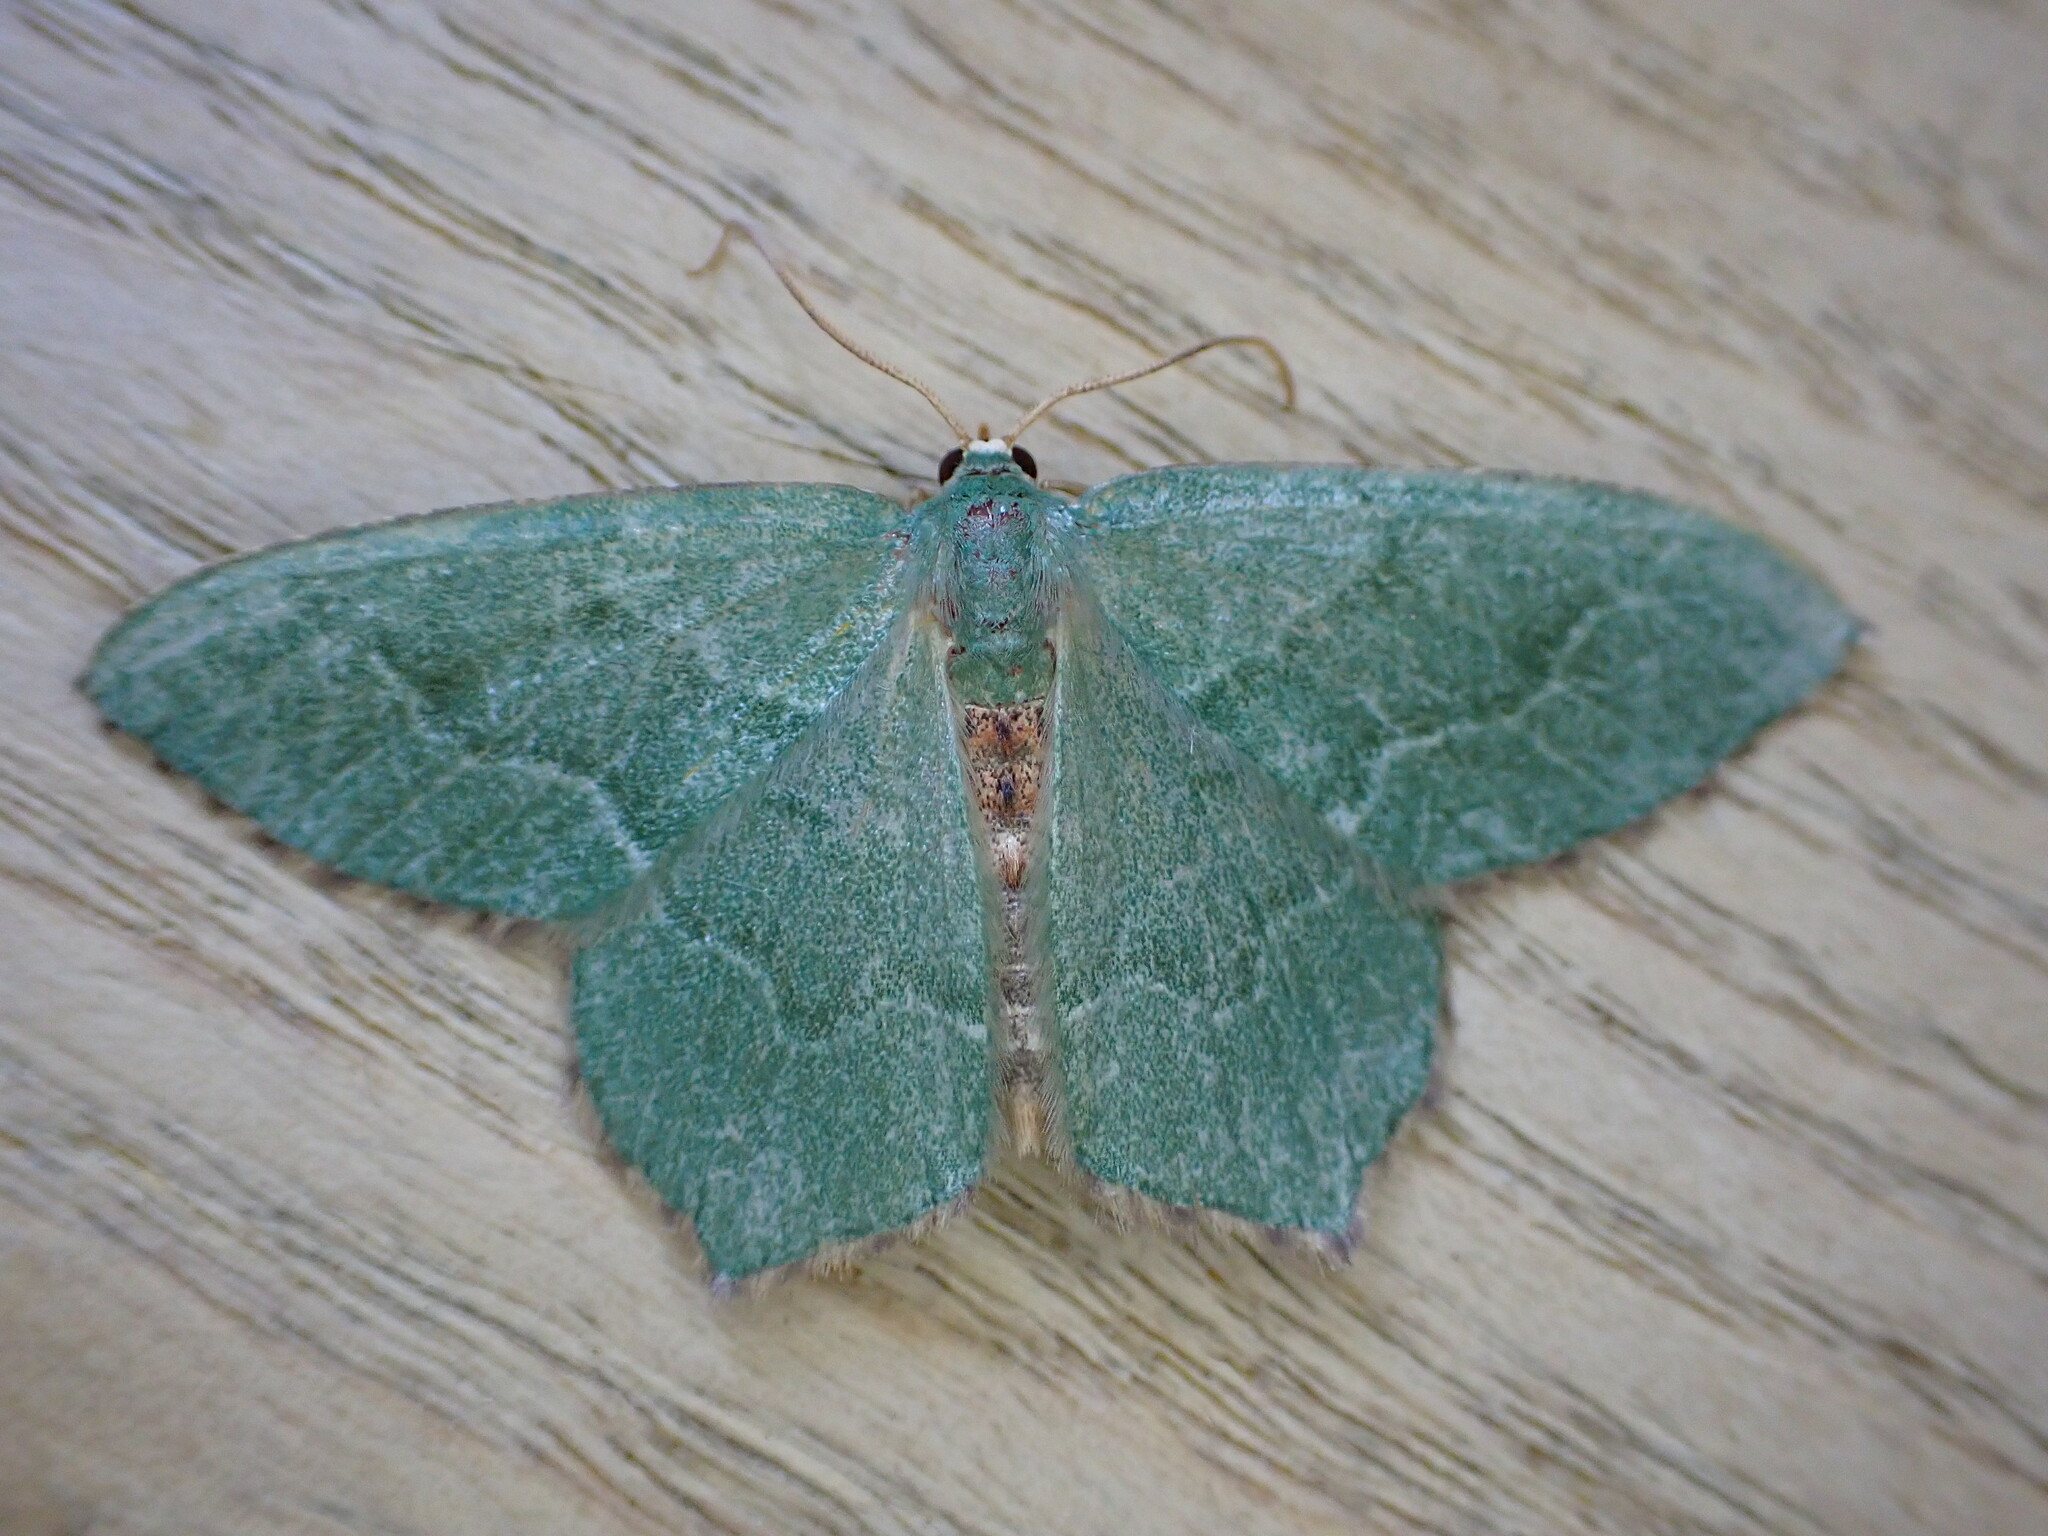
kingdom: Animalia
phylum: Arthropoda
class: Insecta
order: Lepidoptera
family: Geometridae
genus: Hemithea
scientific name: Hemithea aestivaria
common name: Common emerald
